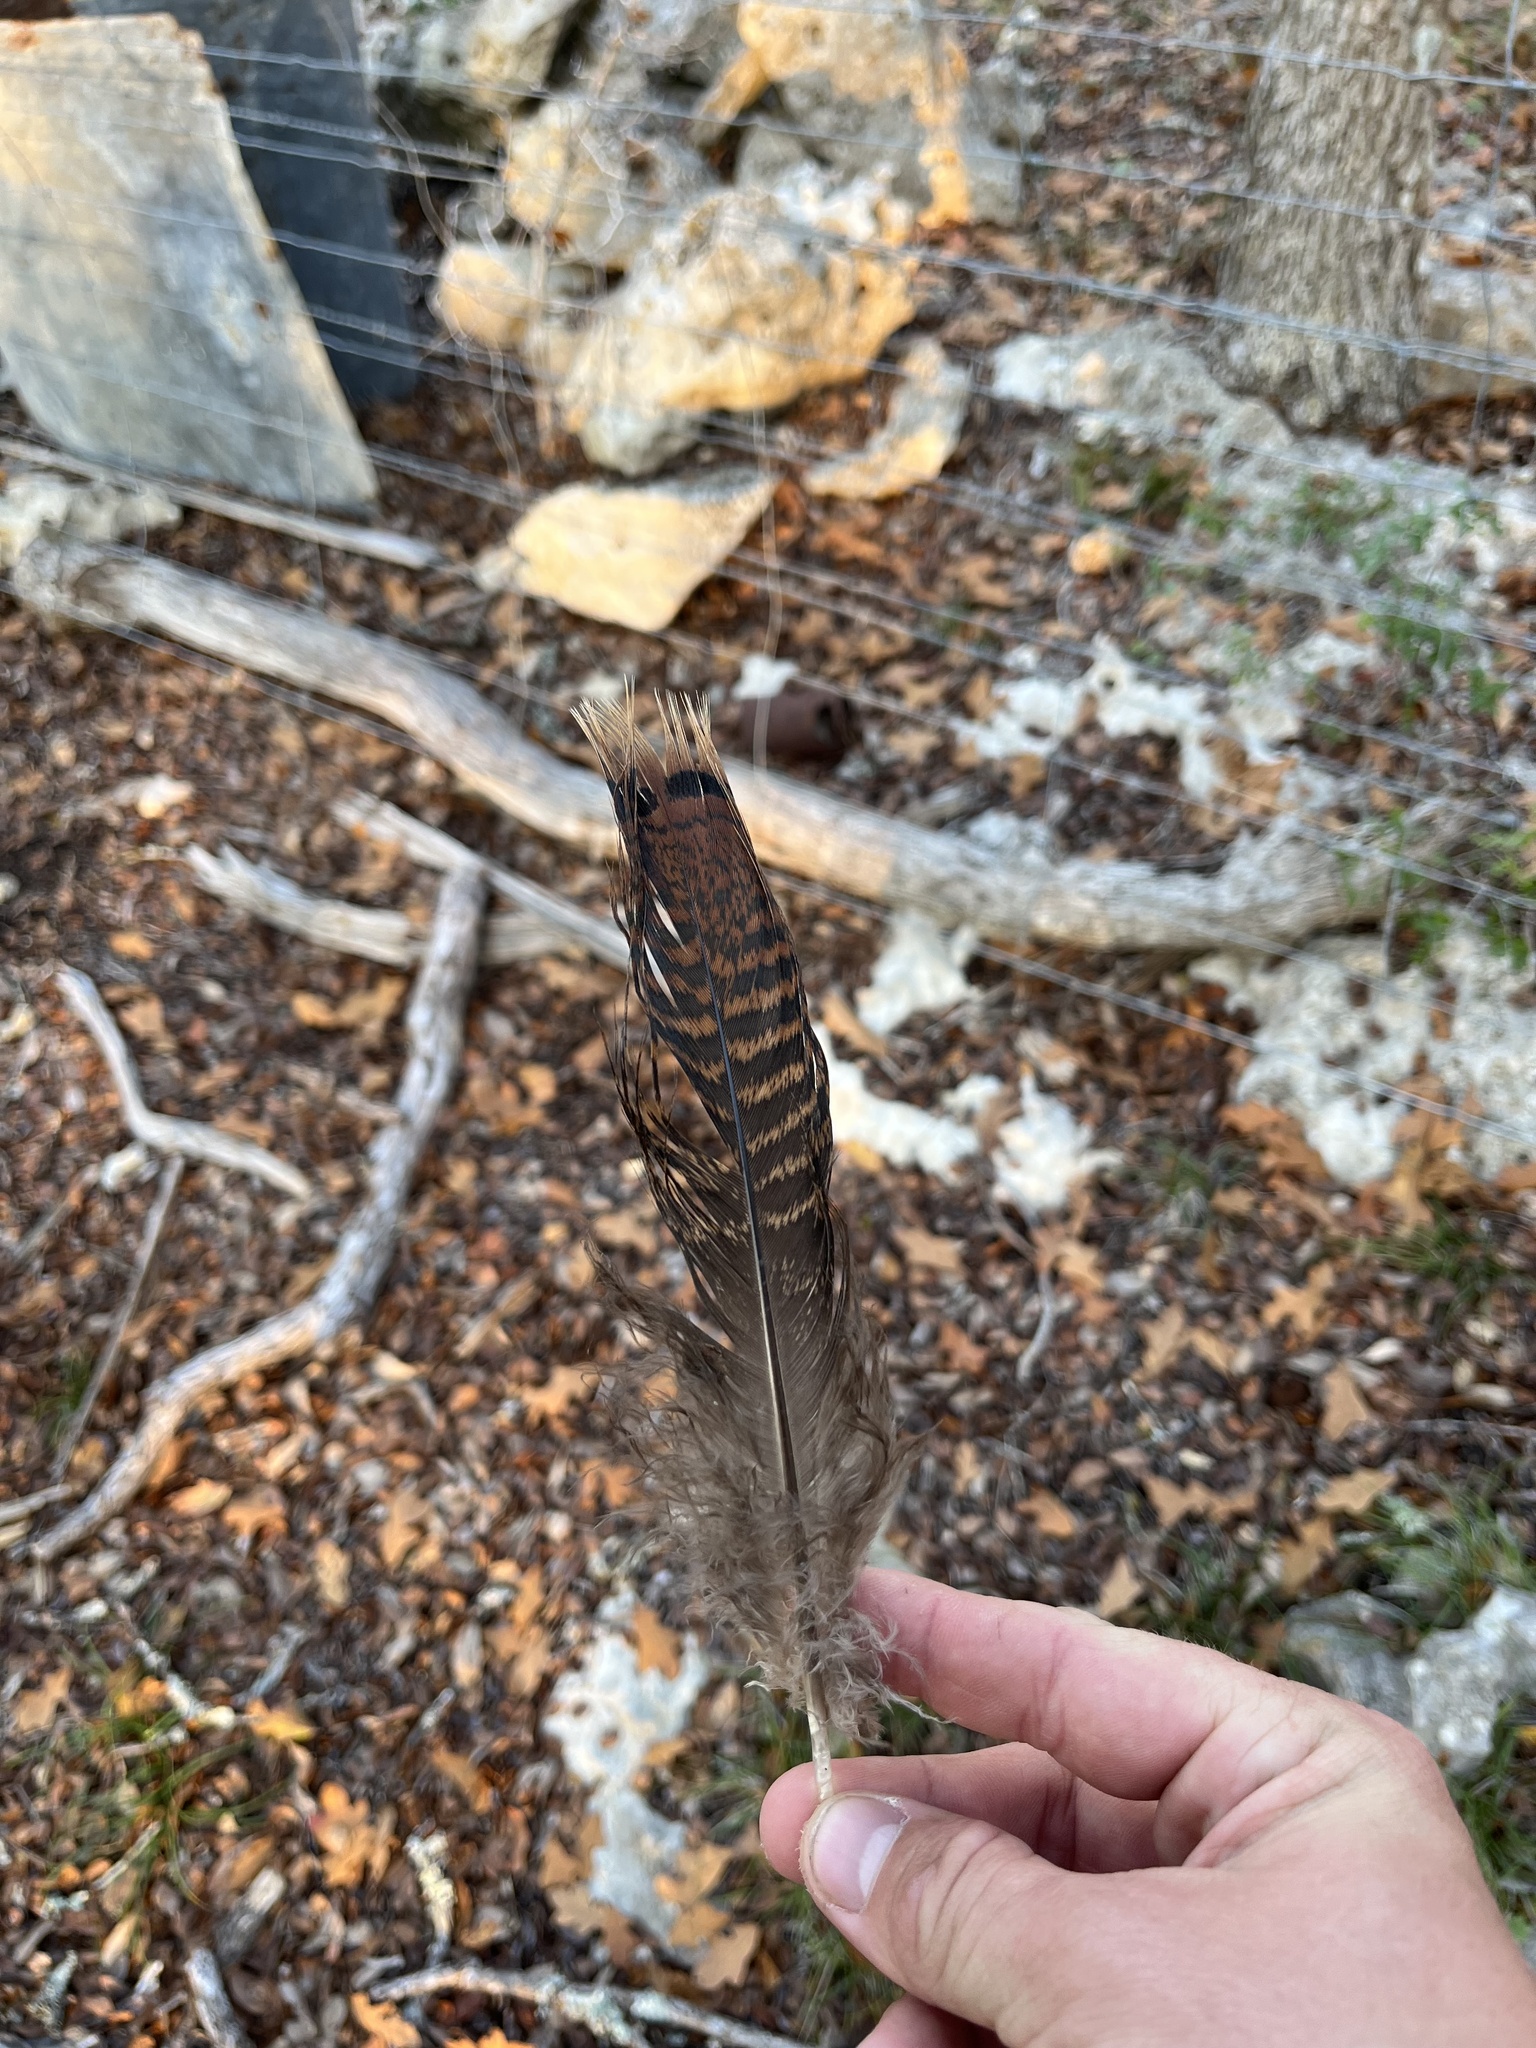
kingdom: Animalia
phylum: Chordata
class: Aves
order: Galliformes
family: Phasianidae
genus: Meleagris
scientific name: Meleagris gallopavo
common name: Wild turkey
